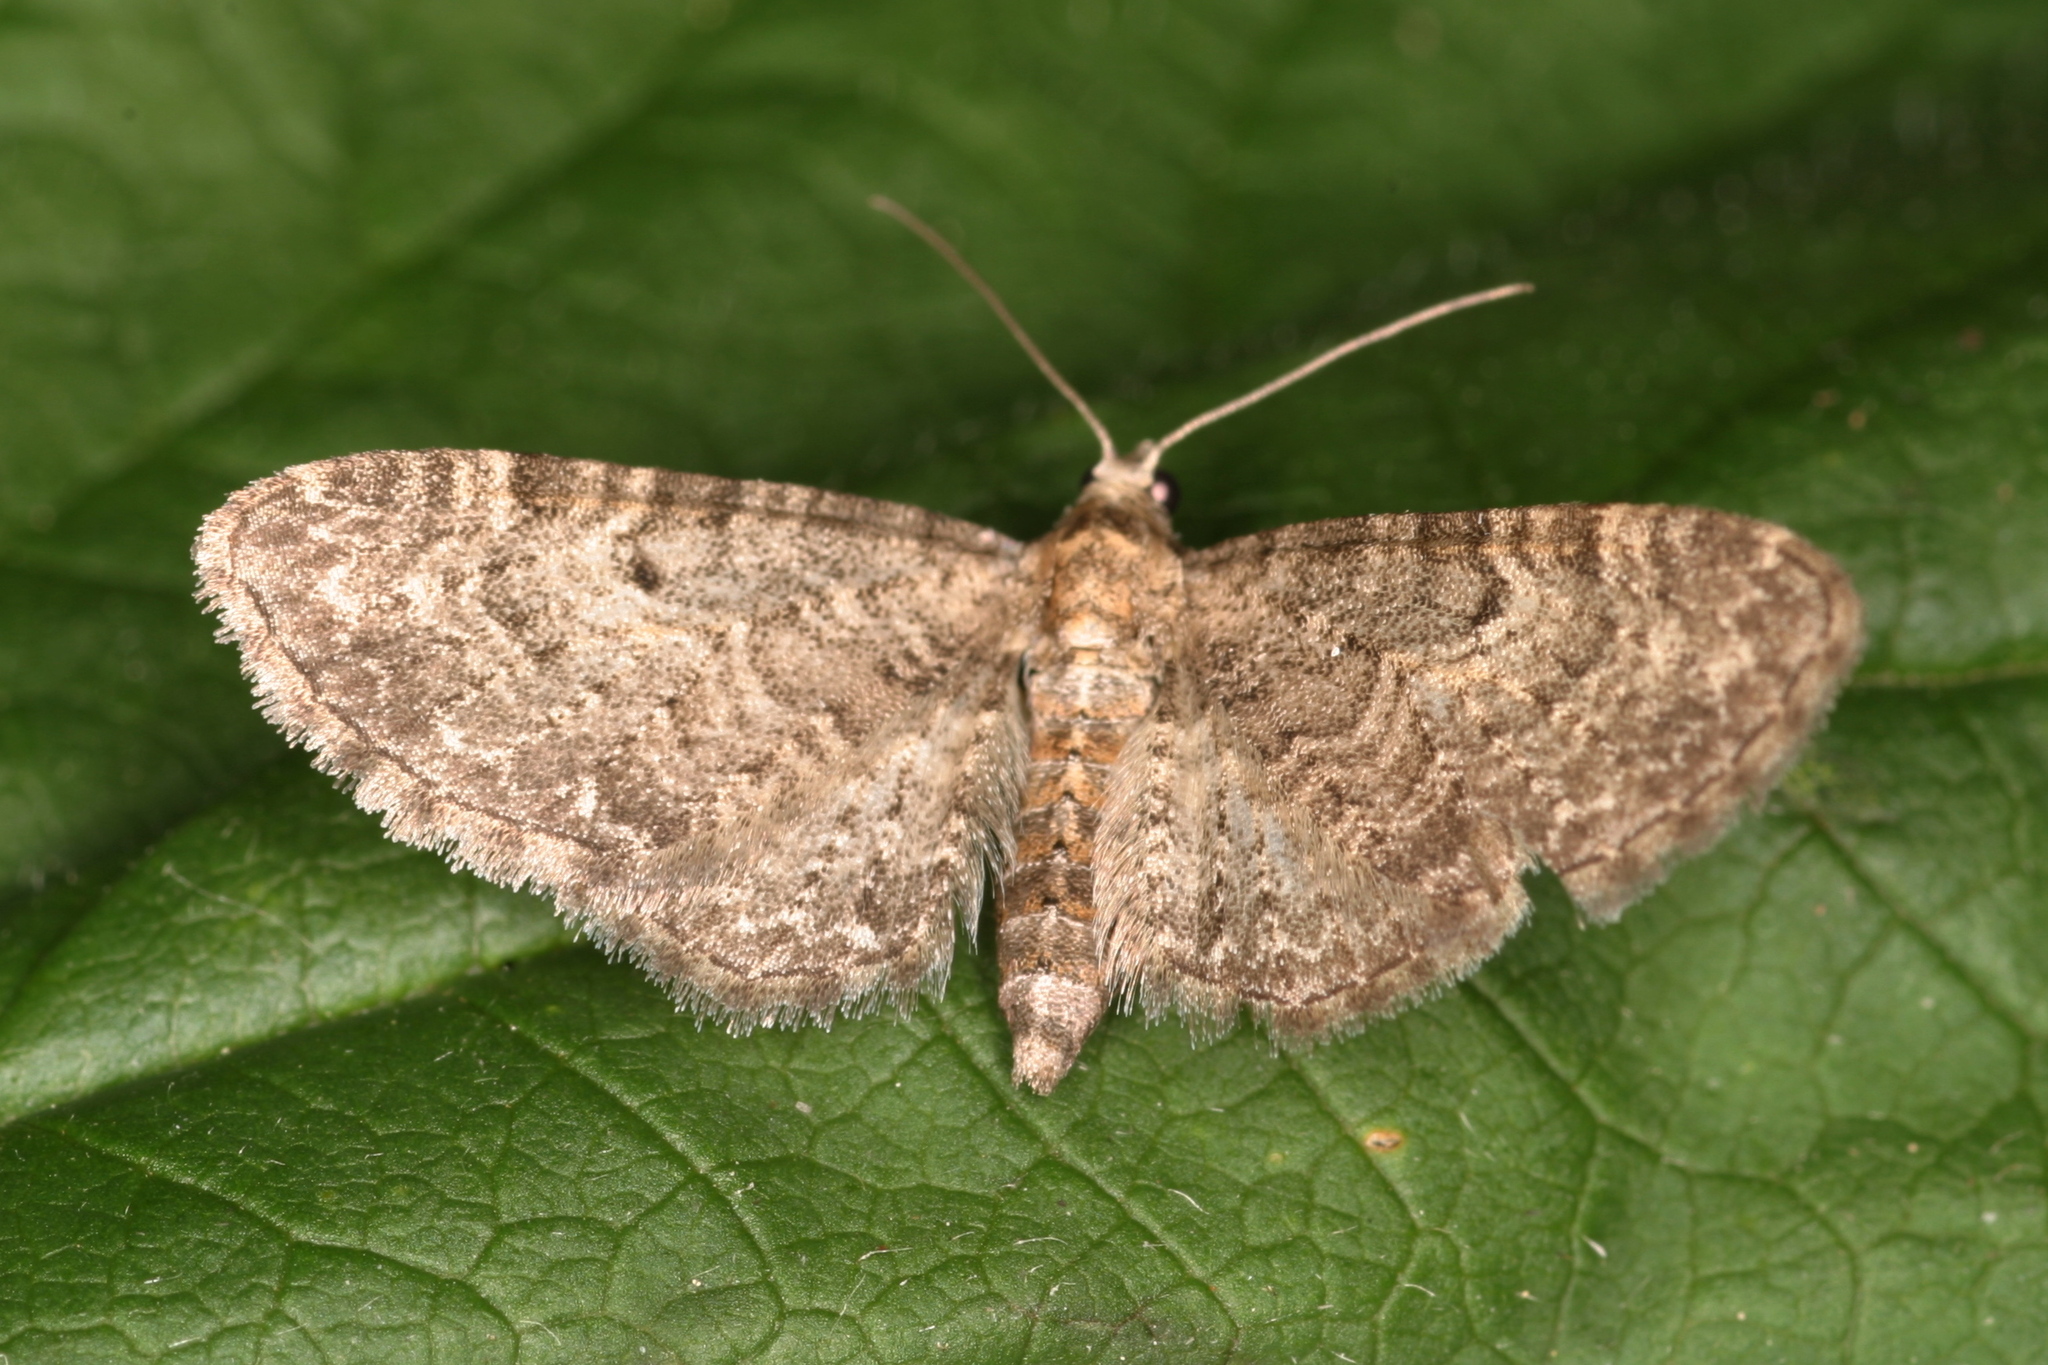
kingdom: Animalia
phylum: Arthropoda
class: Insecta
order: Lepidoptera
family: Geometridae
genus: Eupithecia
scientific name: Eupithecia subfuscata
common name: Grey pug
